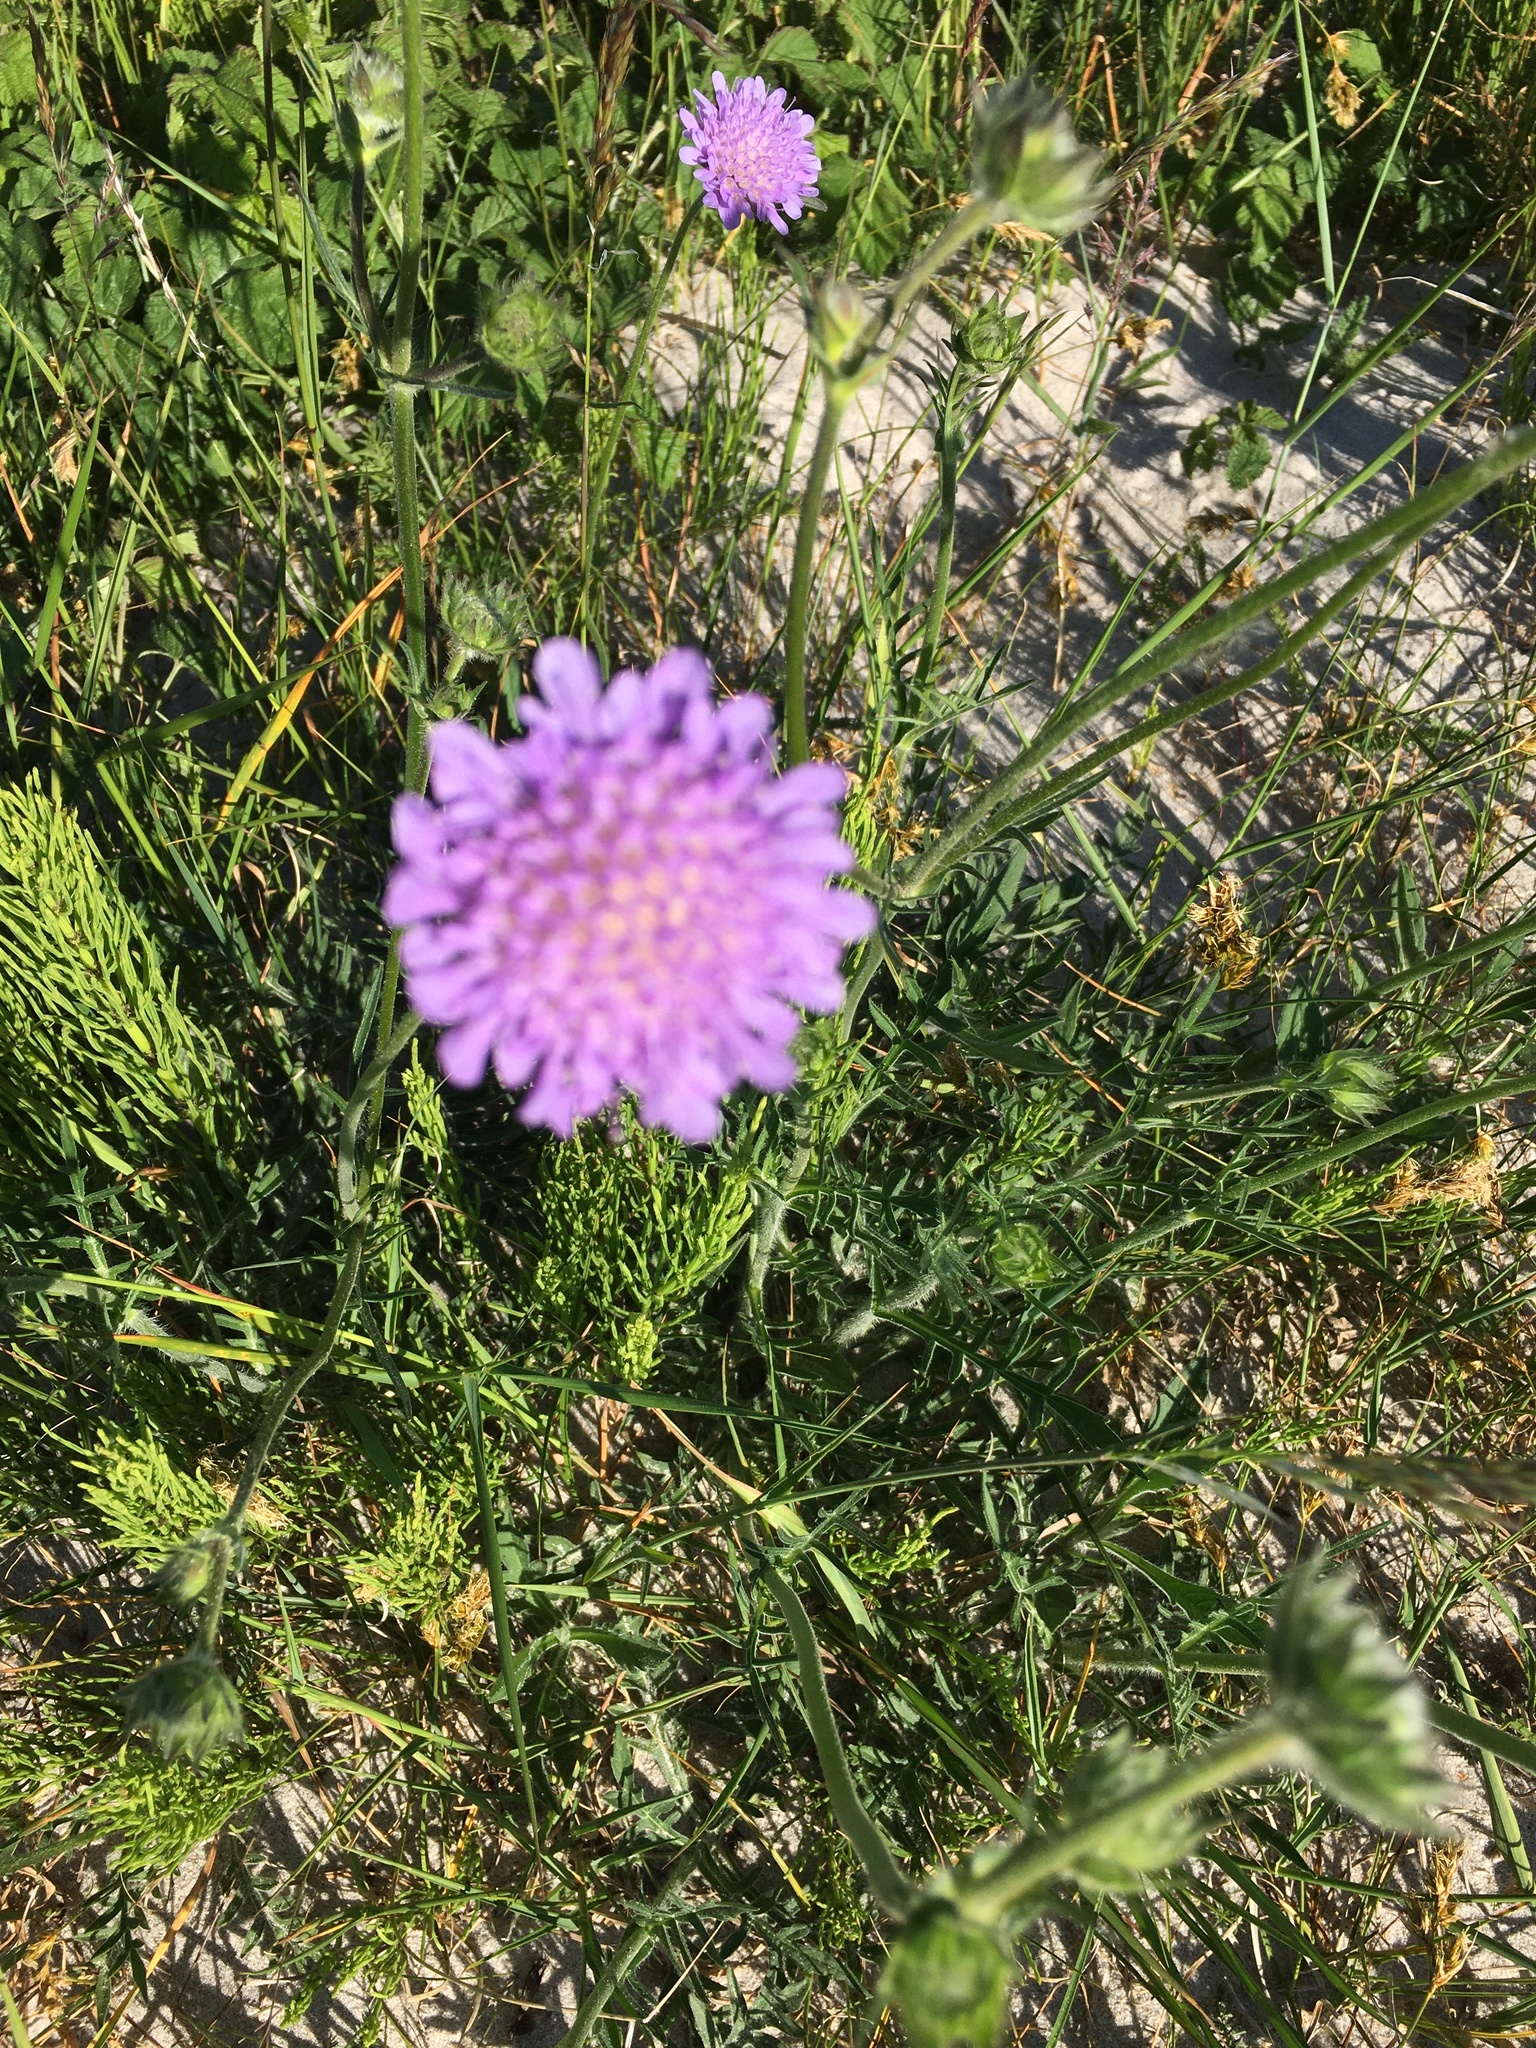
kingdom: Plantae
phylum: Tracheophyta
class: Magnoliopsida
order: Dipsacales
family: Caprifoliaceae
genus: Knautia
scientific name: Knautia arvensis
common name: Field scabiosa
